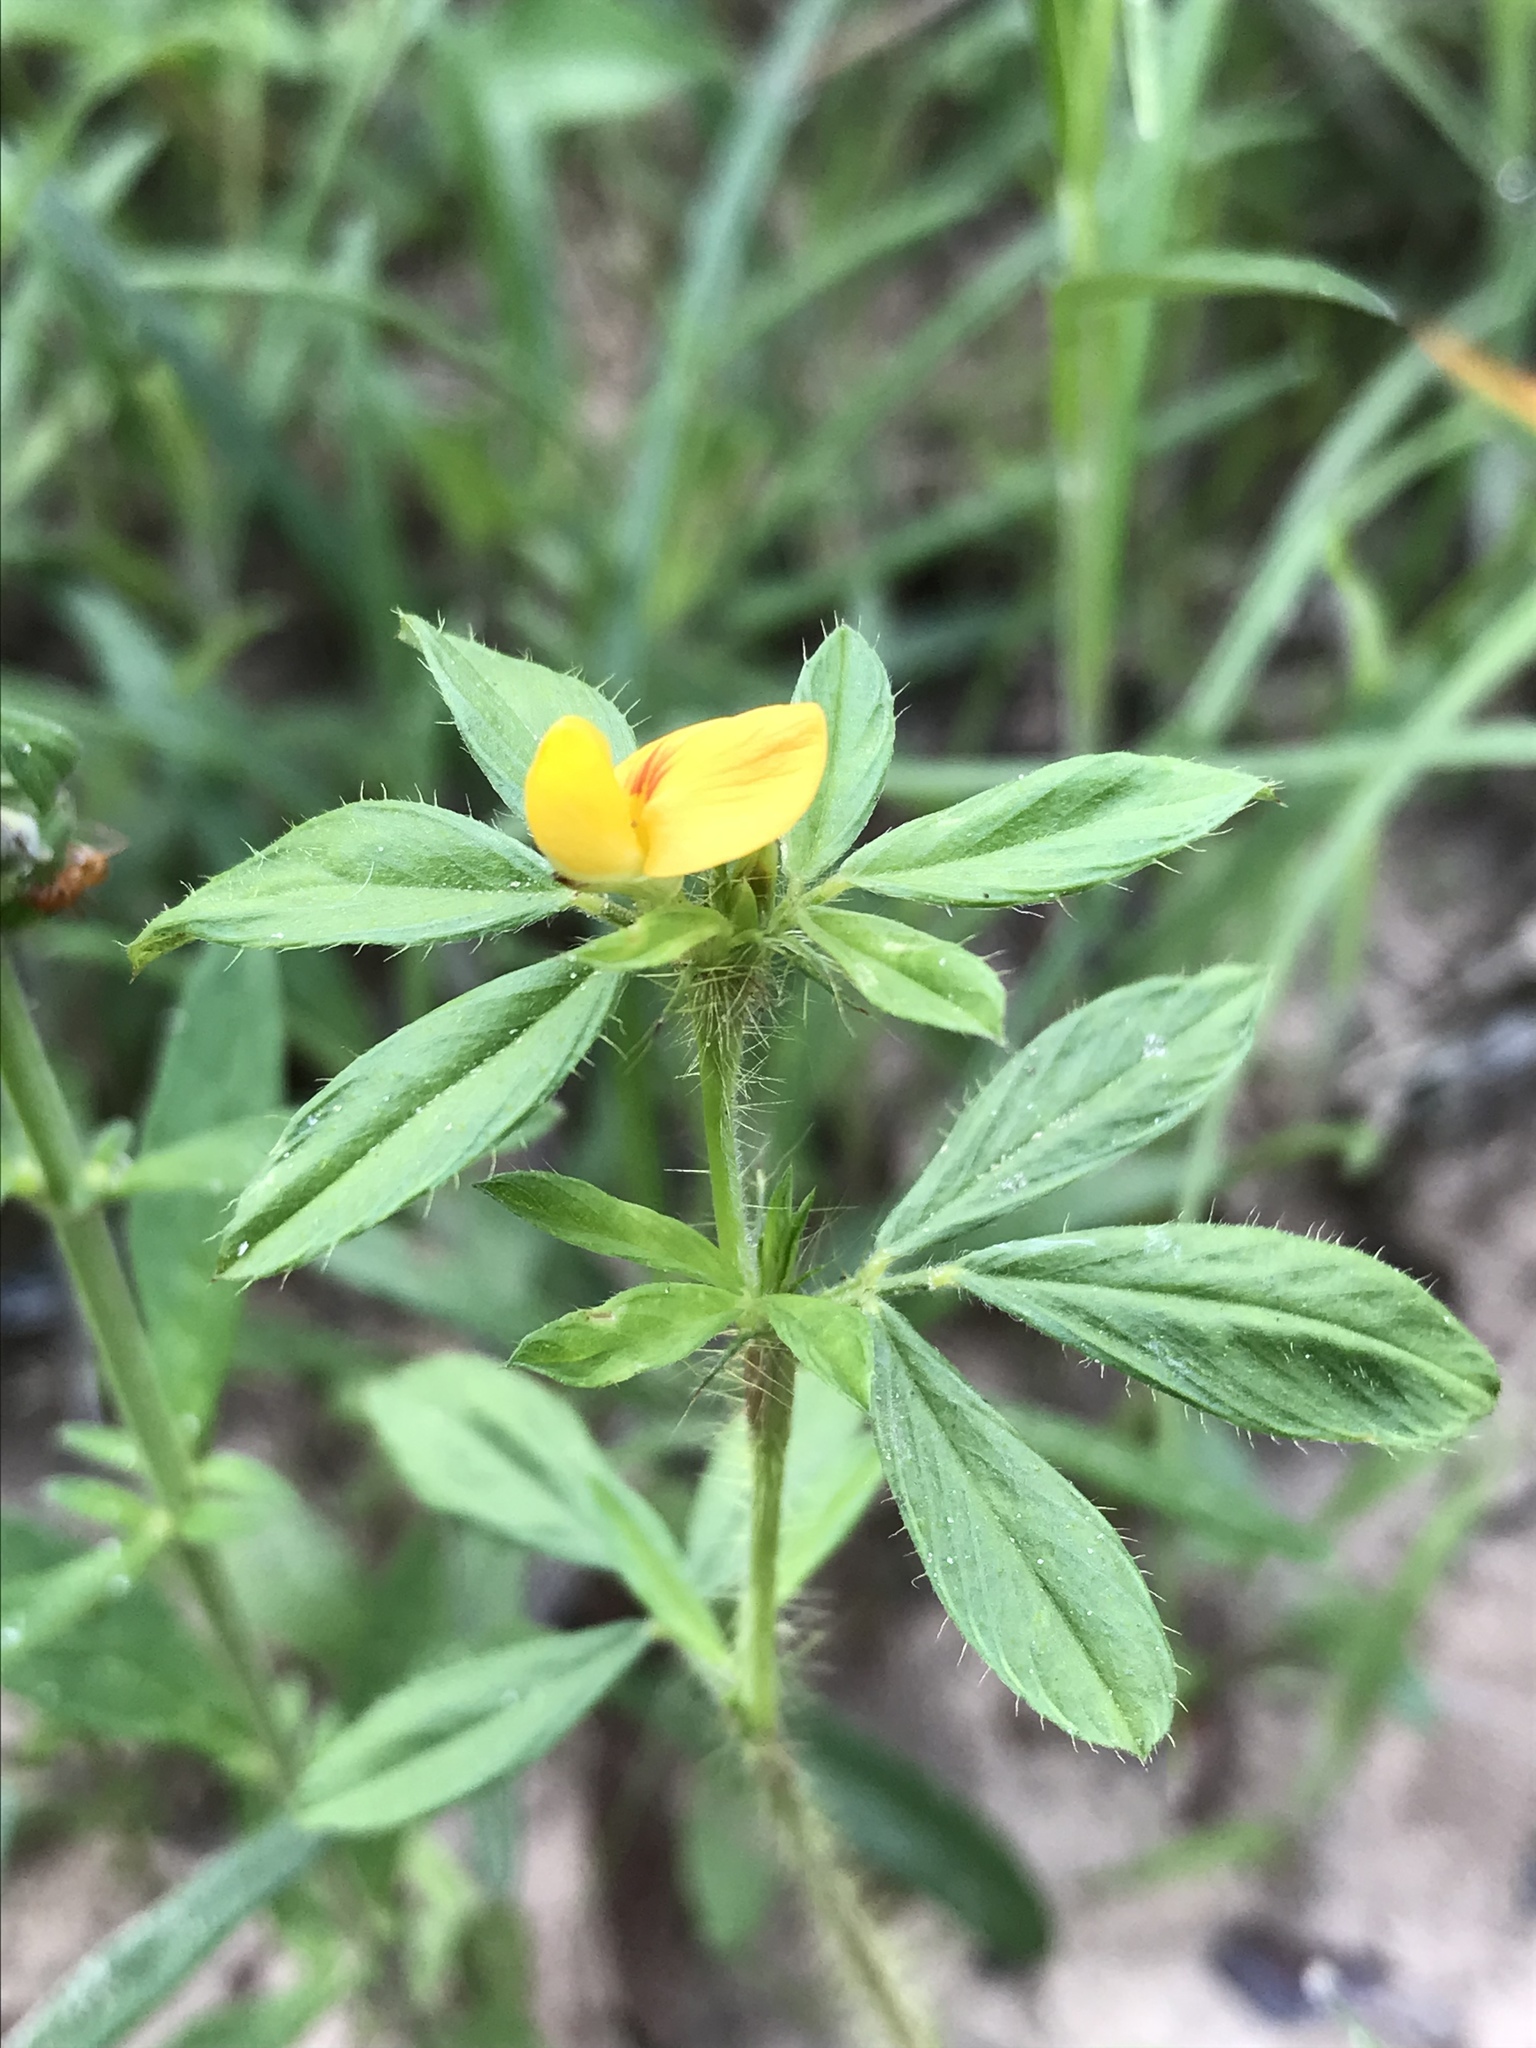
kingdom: Plantae
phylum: Tracheophyta
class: Magnoliopsida
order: Fabales
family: Fabaceae
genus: Stylosanthes
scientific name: Stylosanthes biflora
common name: Two-flower pencil-flower
